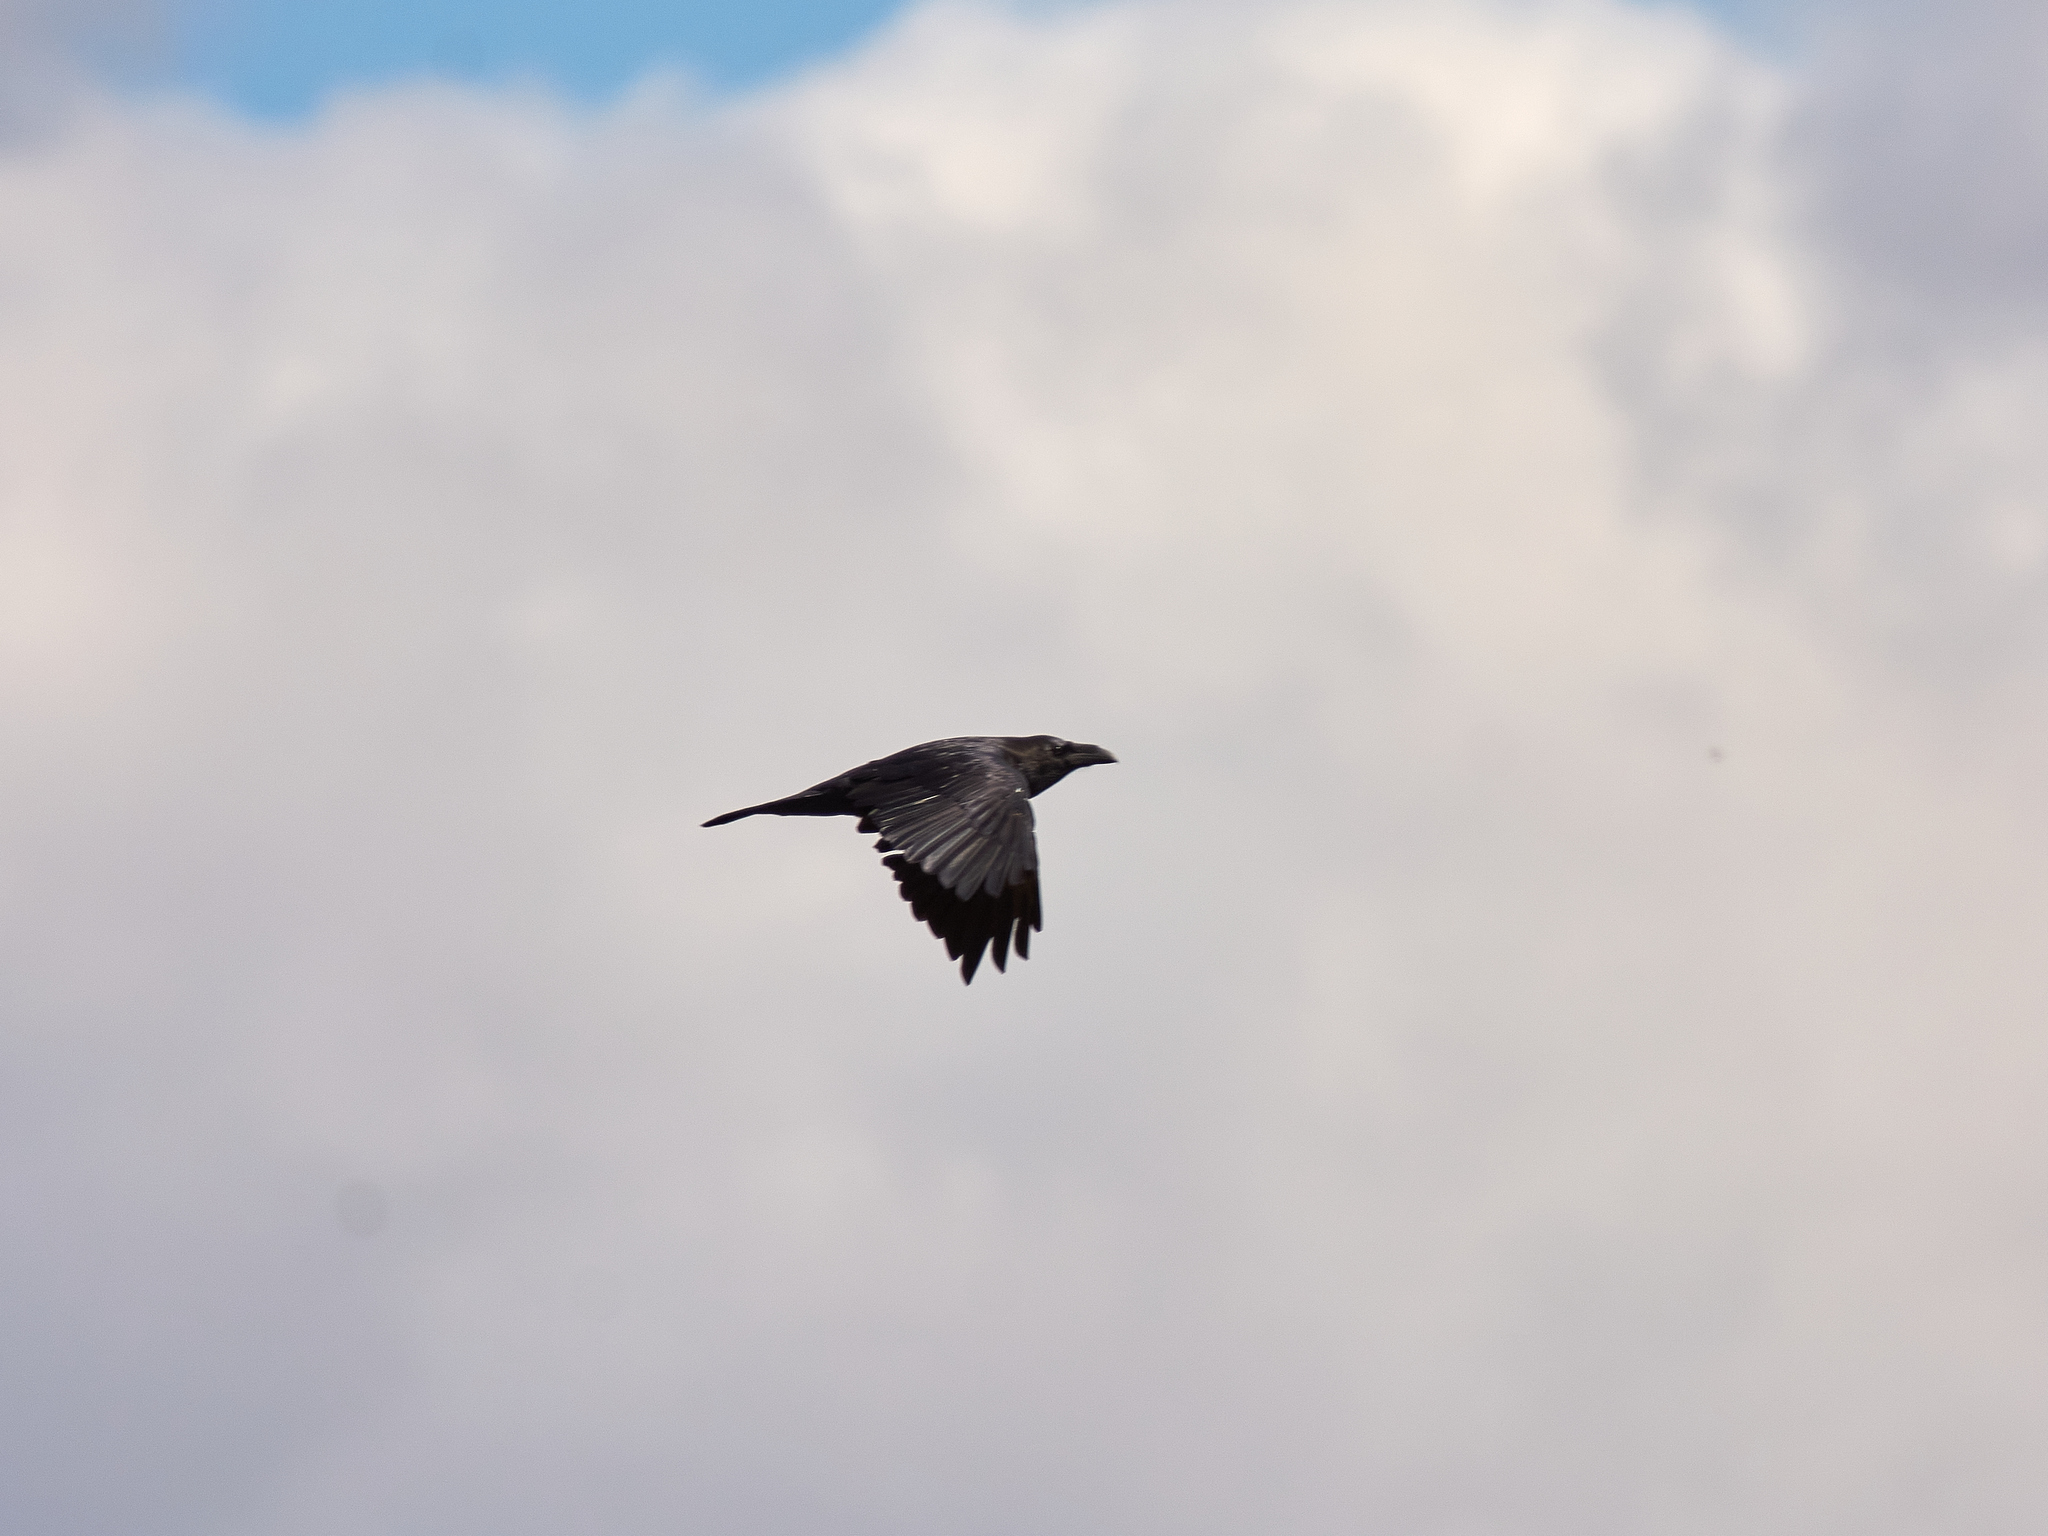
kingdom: Animalia
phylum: Chordata
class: Aves
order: Passeriformes
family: Corvidae
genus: Corvus
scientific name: Corvus corax
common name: Common raven
